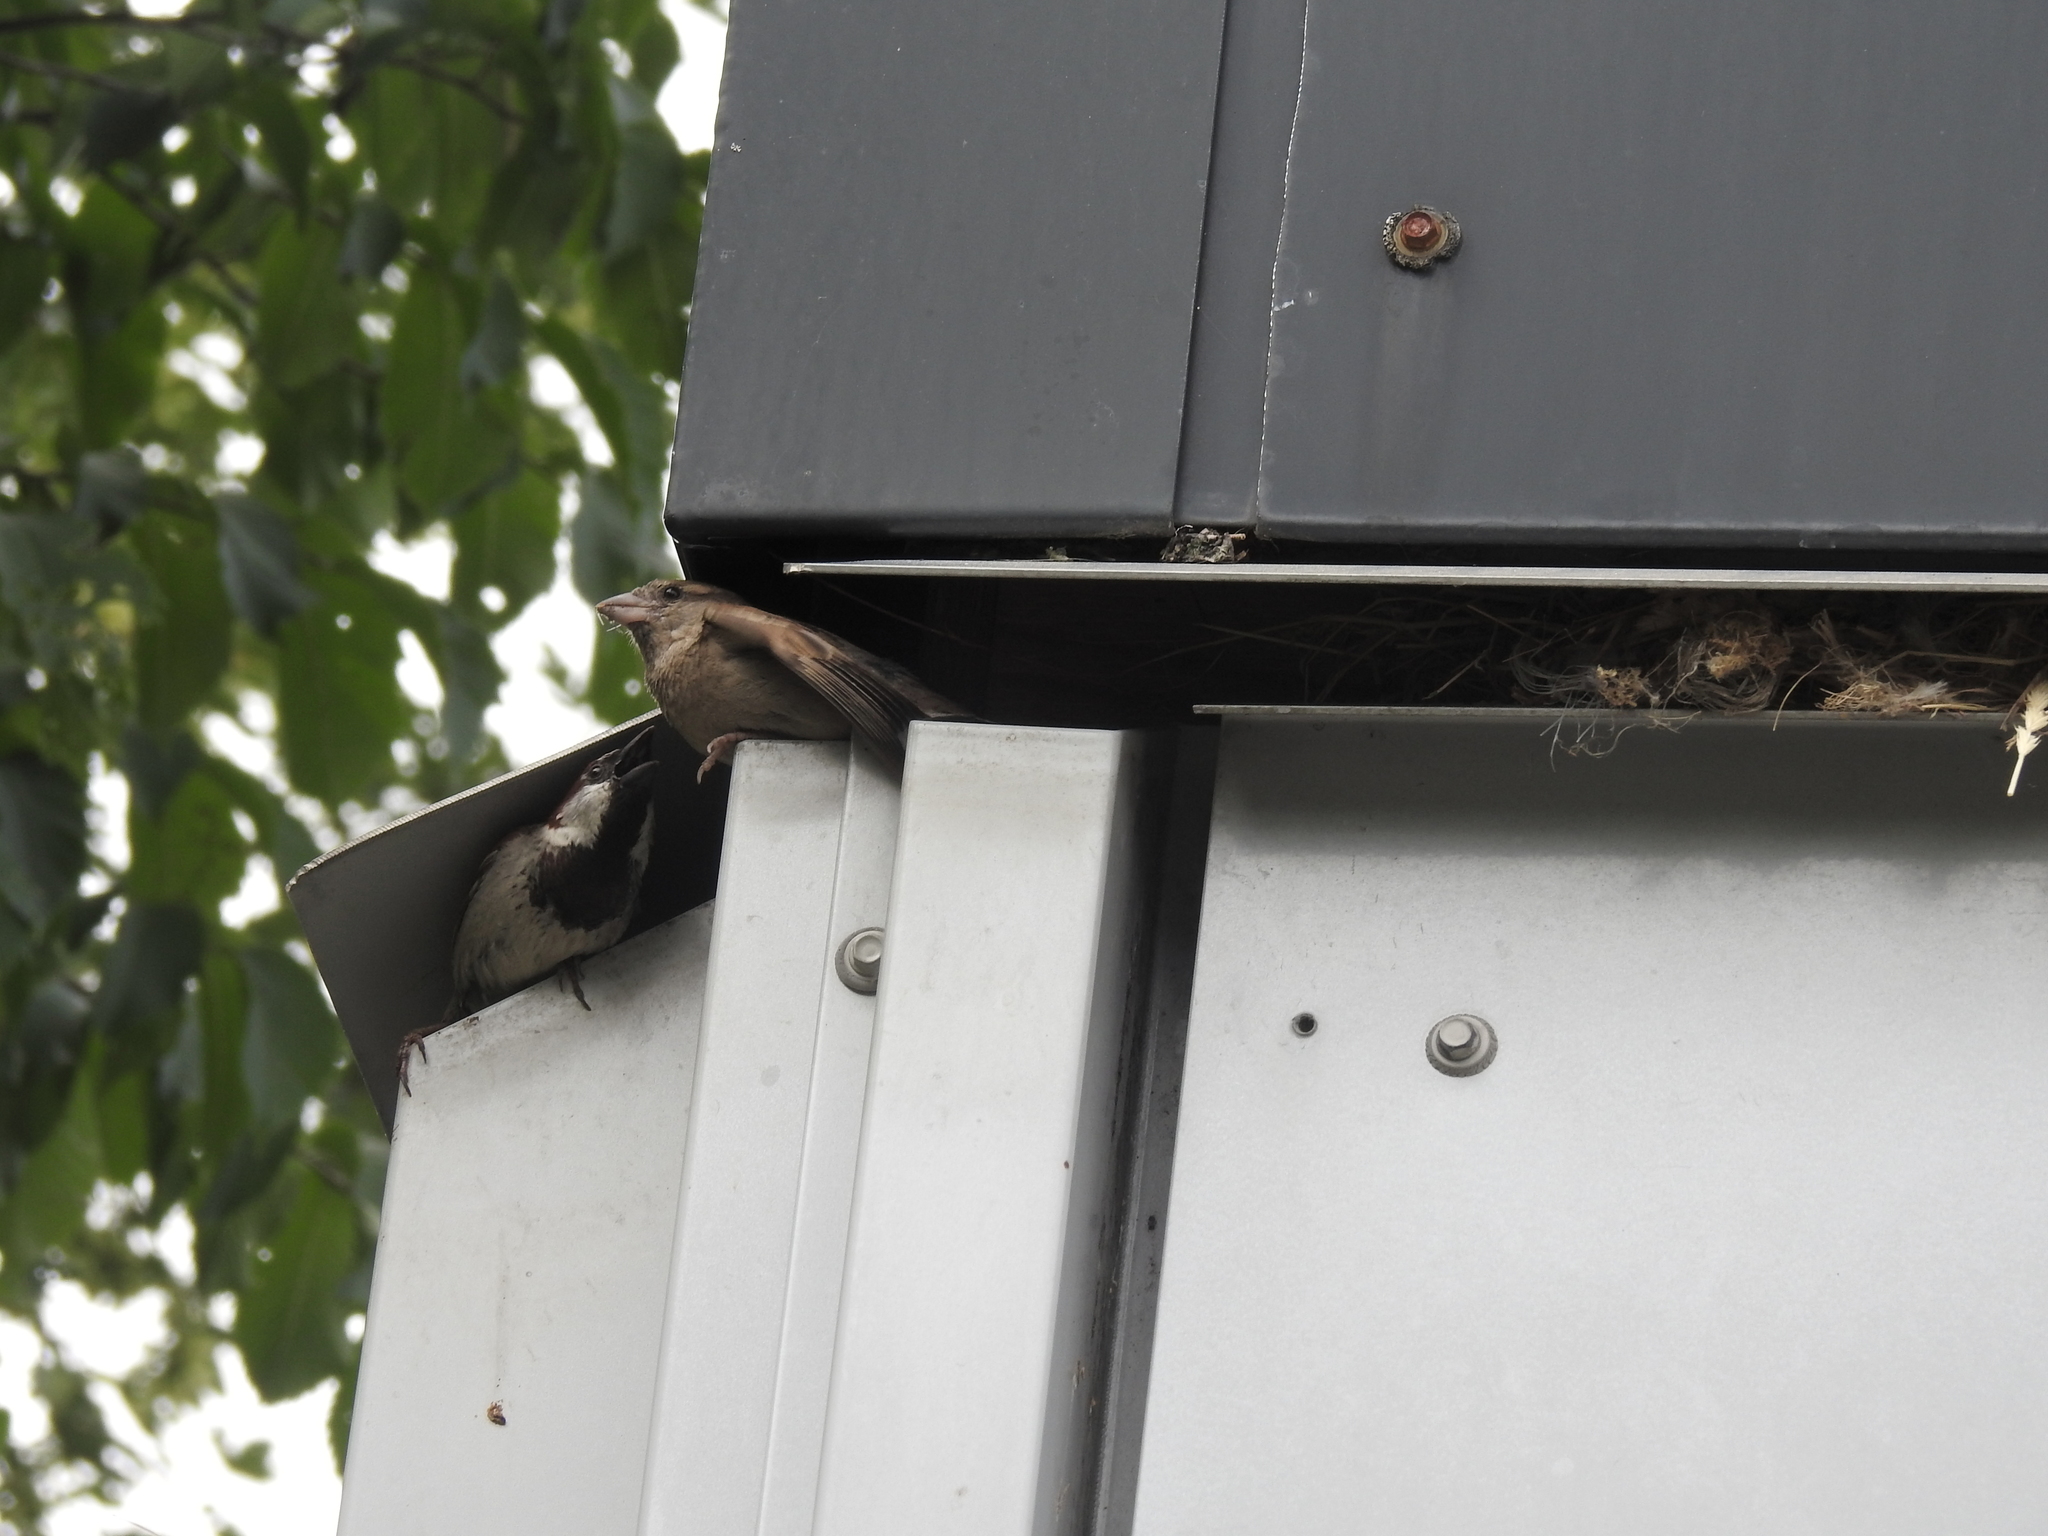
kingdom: Animalia
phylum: Chordata
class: Aves
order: Passeriformes
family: Passeridae
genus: Passer
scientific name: Passer domesticus
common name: House sparrow
